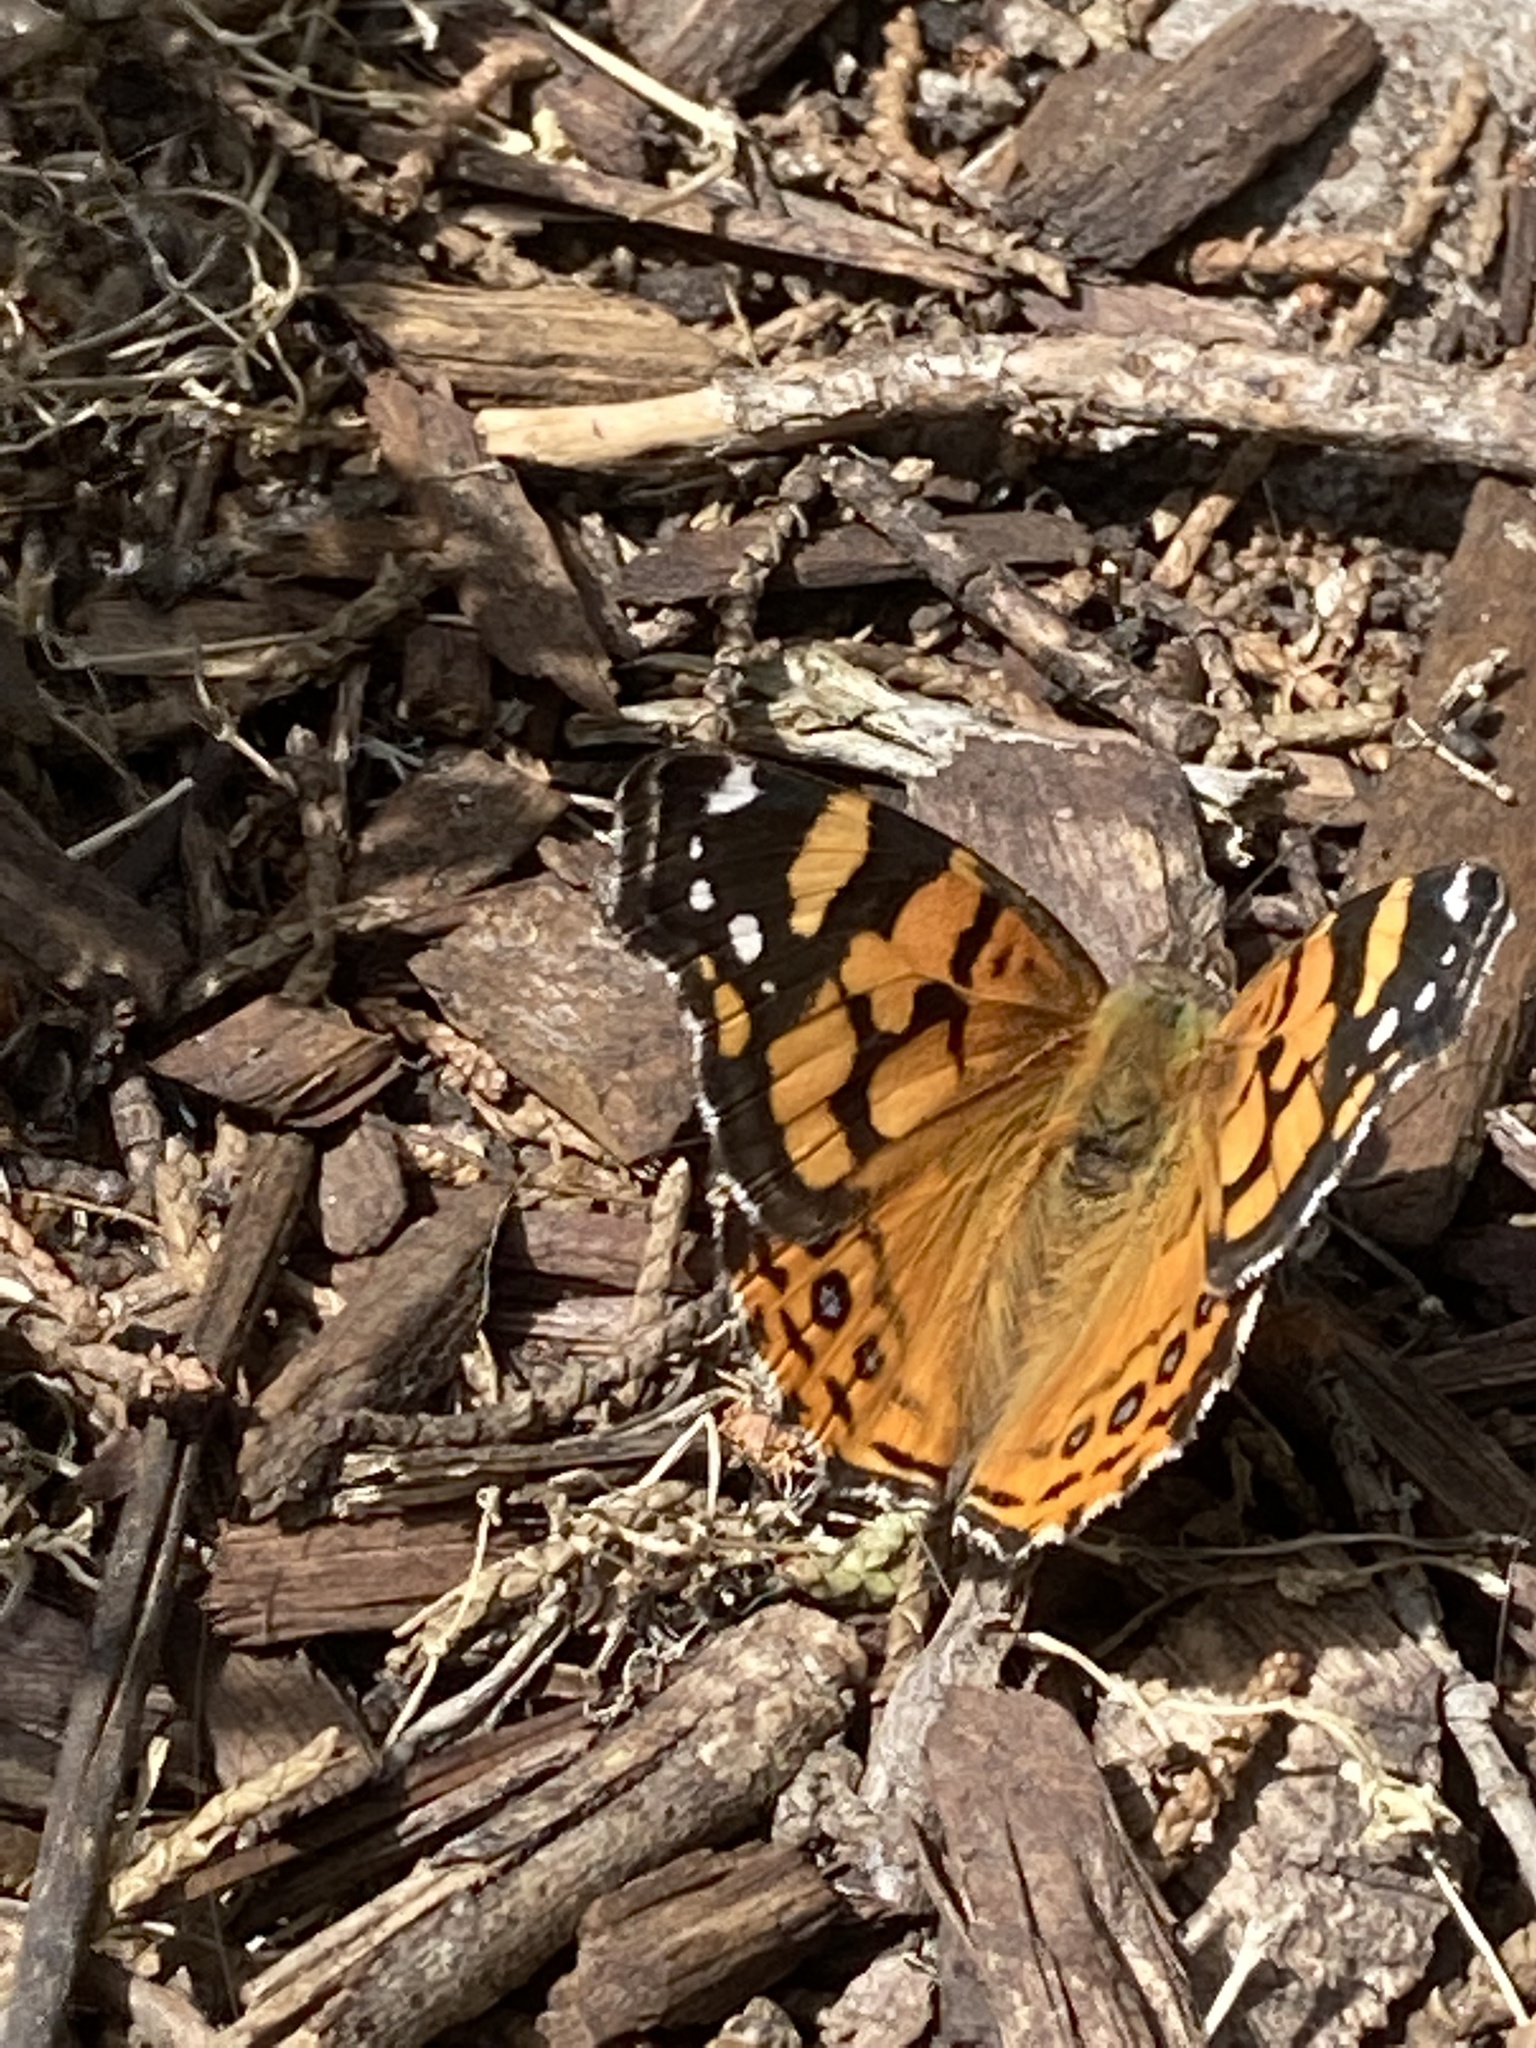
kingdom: Animalia
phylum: Arthropoda
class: Insecta
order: Lepidoptera
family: Nymphalidae
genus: Vanessa
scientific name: Vanessa annabella
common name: West coast lady
